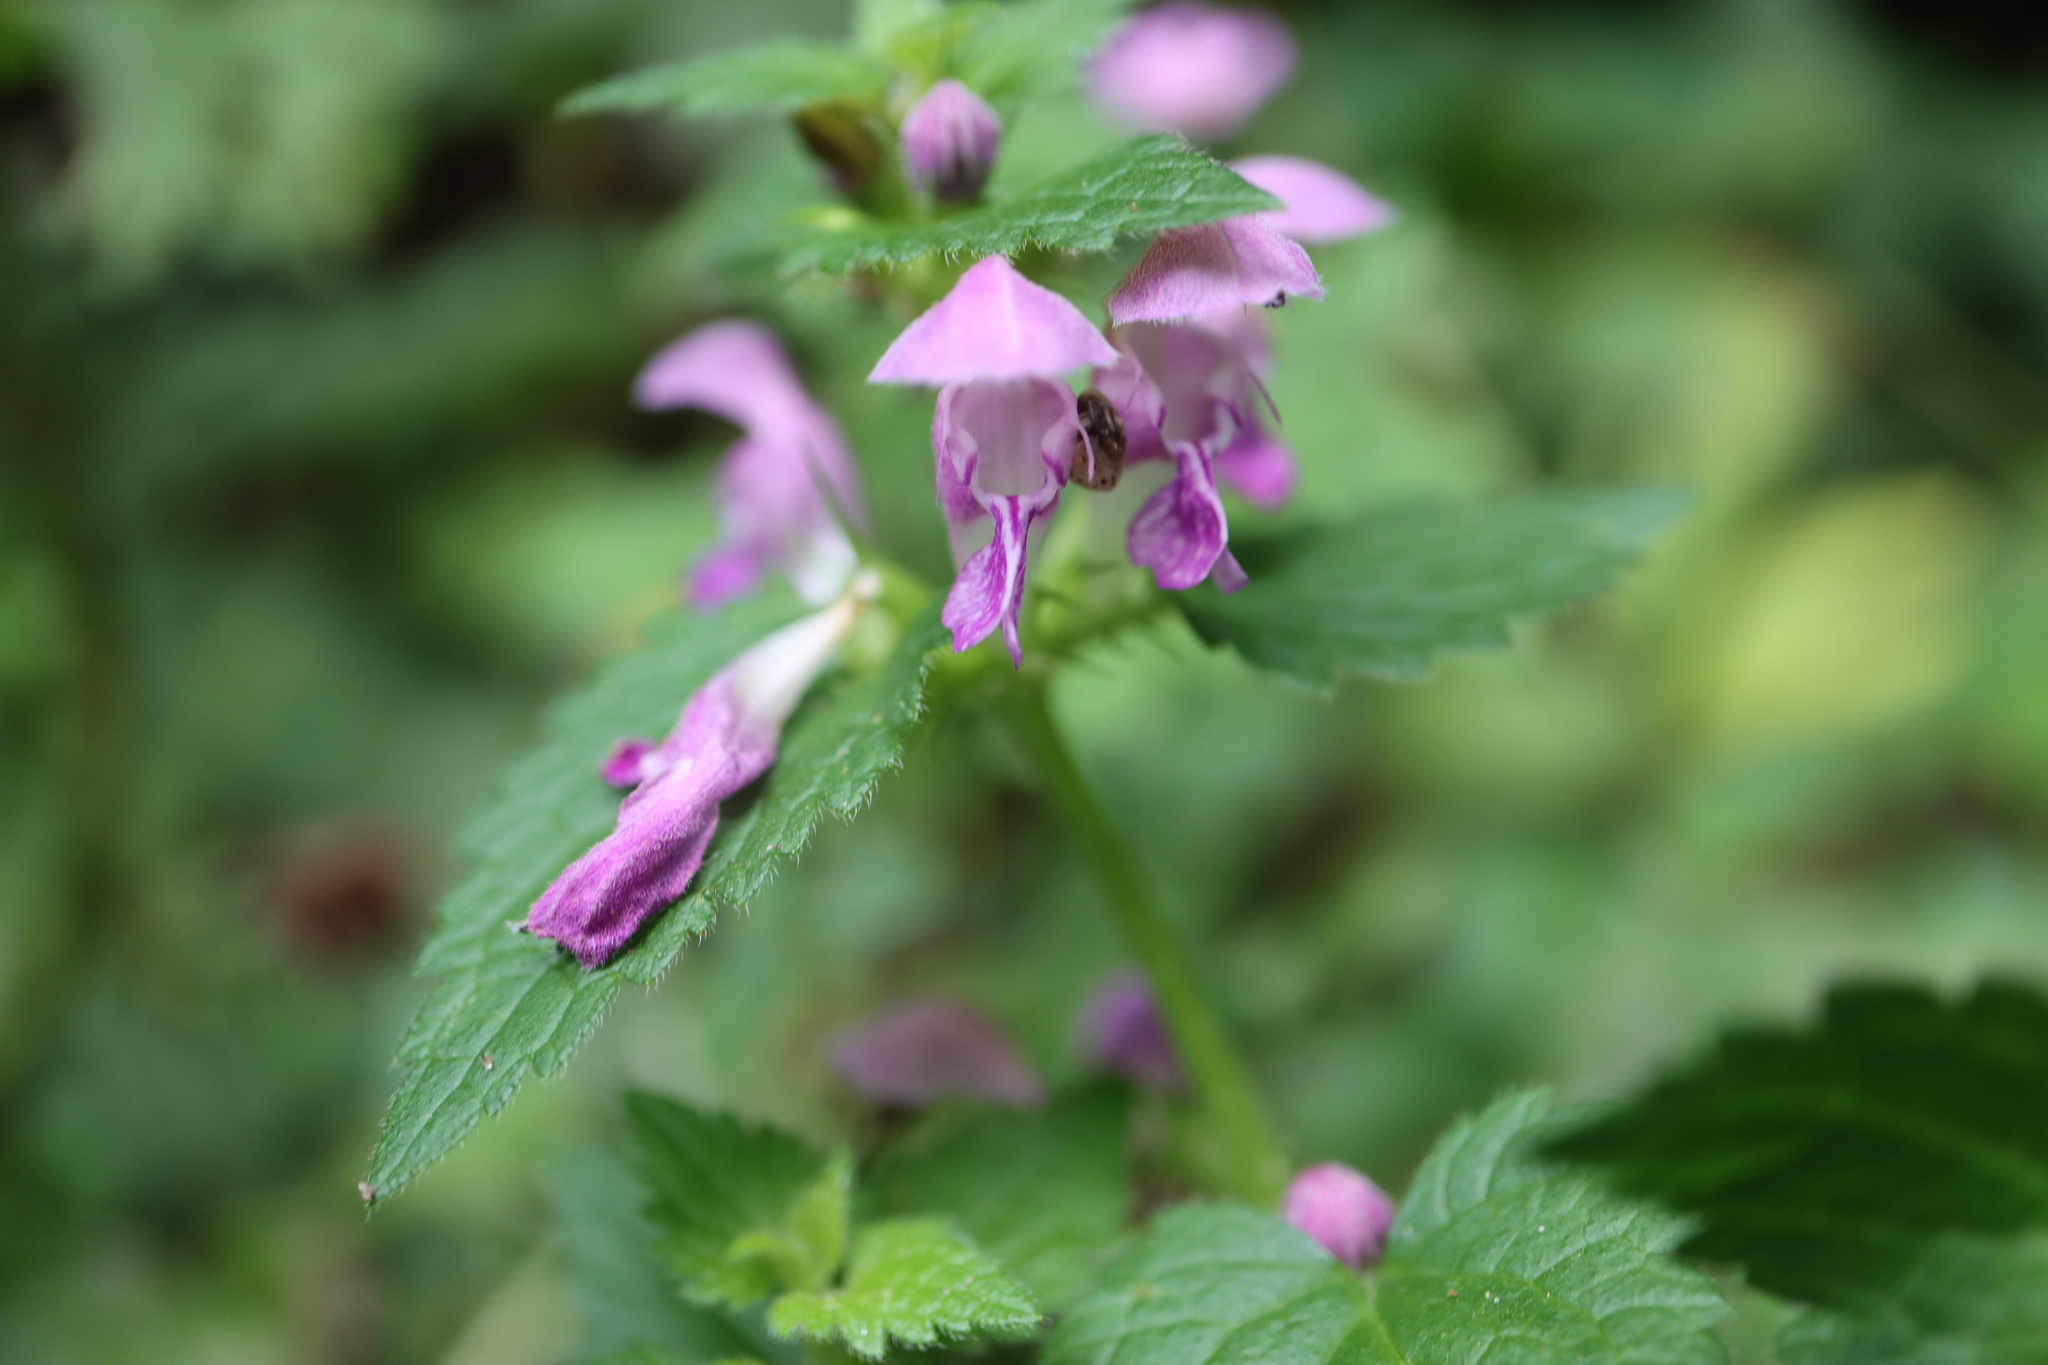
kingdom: Plantae
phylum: Tracheophyta
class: Magnoliopsida
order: Lamiales
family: Lamiaceae
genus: Lamium
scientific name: Lamium maculatum
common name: Spotted dead-nettle
